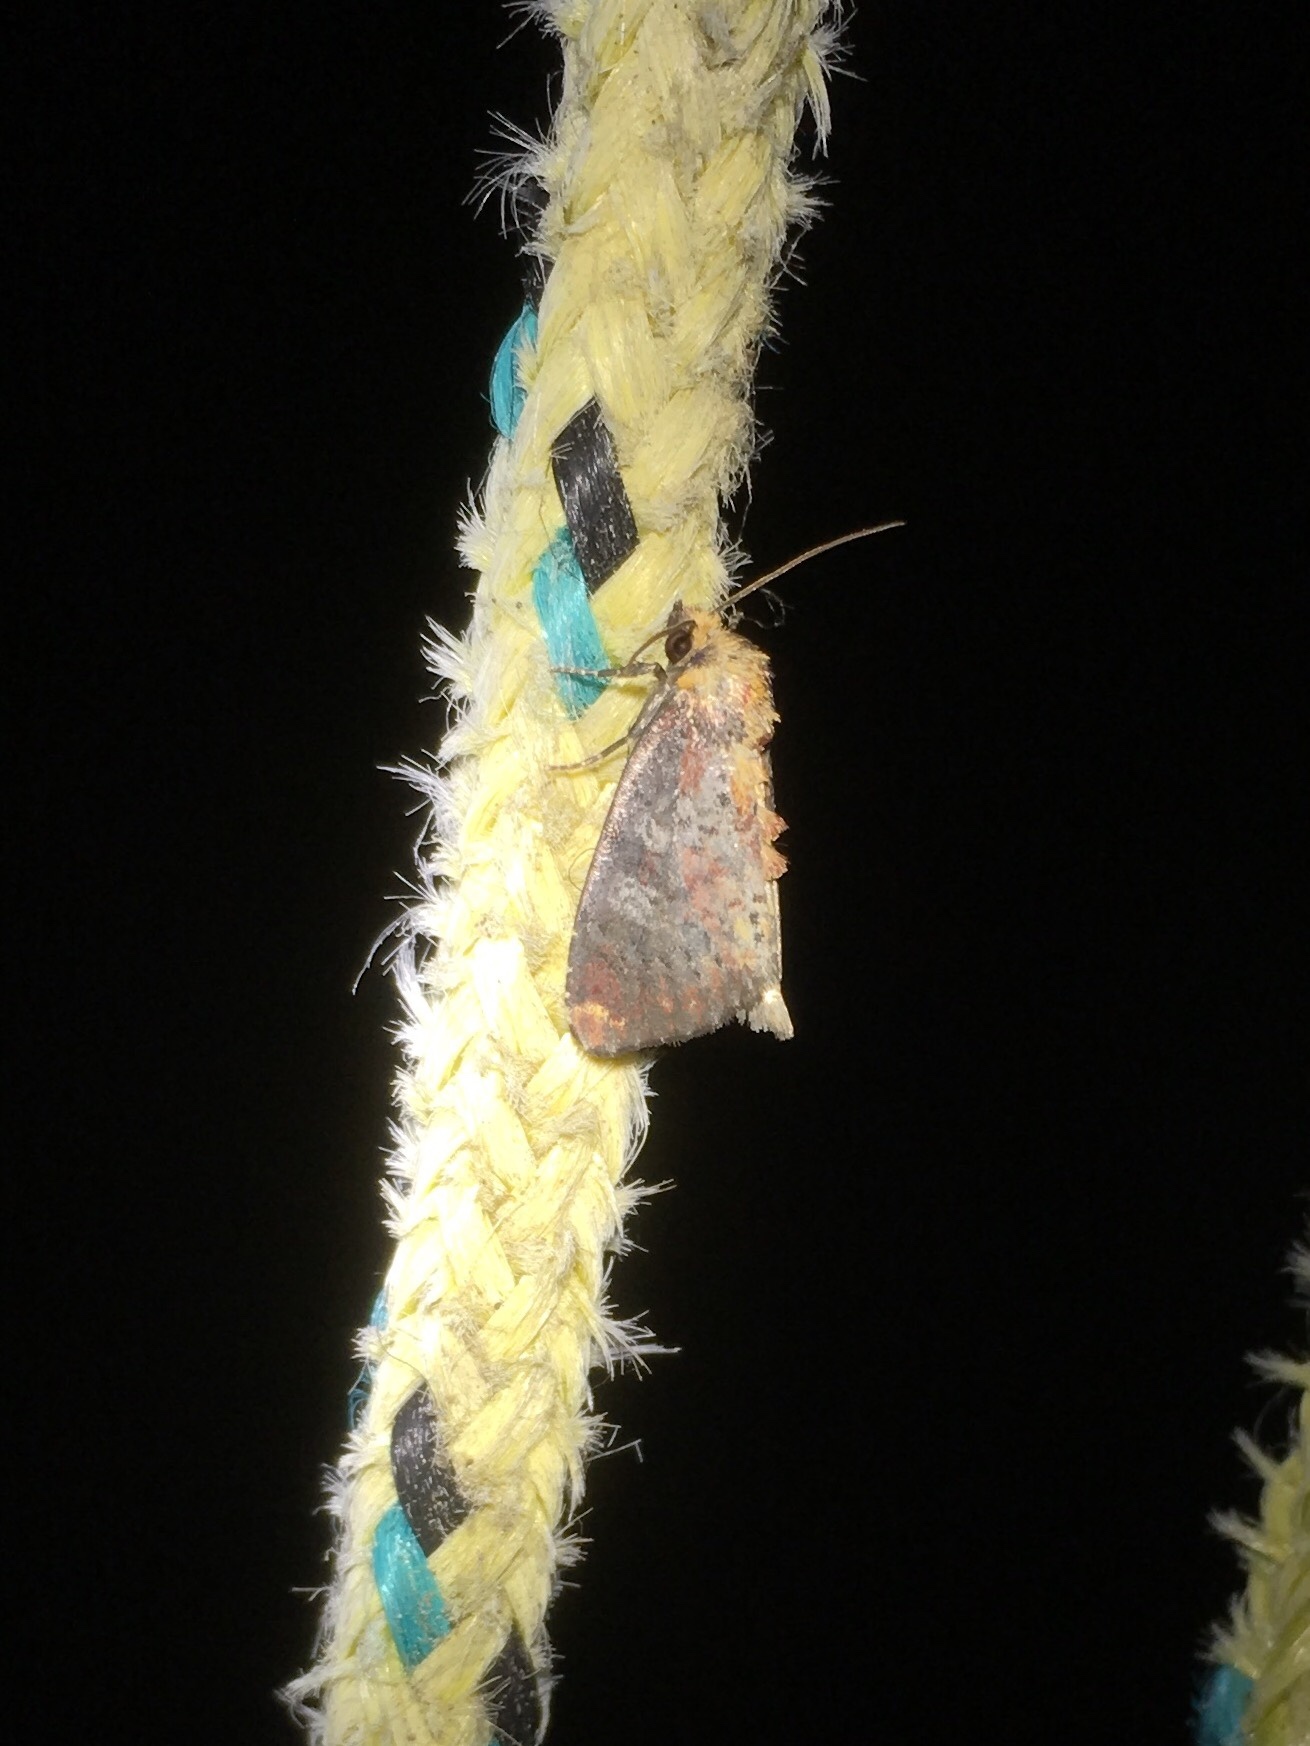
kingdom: Animalia
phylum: Arthropoda
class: Insecta
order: Lepidoptera
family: Noctuidae
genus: Achatodes
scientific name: Achatodes zeae
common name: Elder shoot borer
